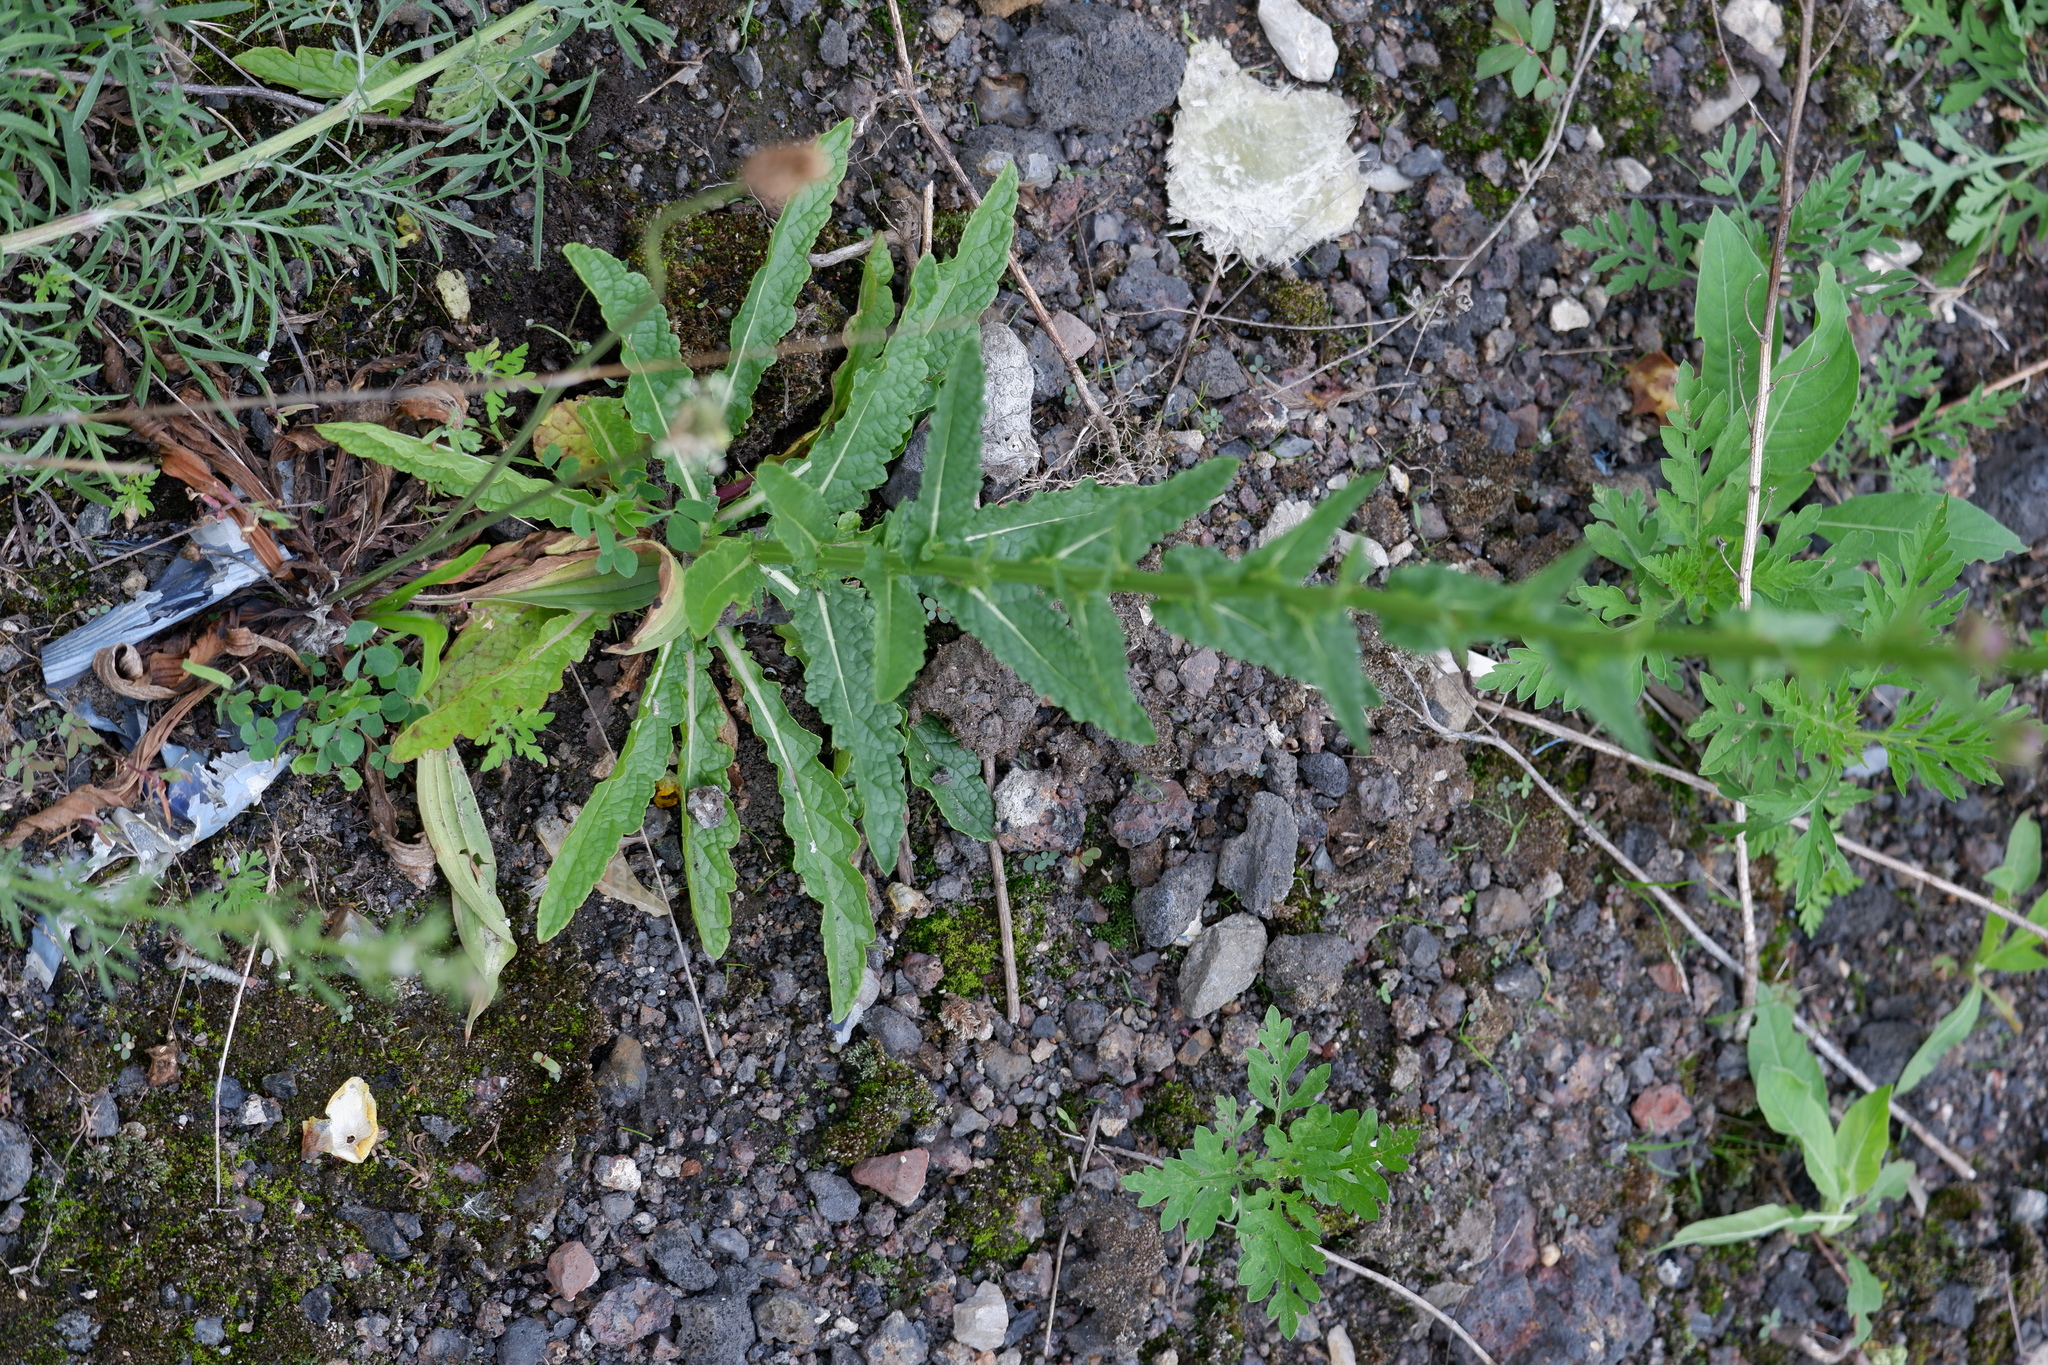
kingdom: Plantae
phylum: Tracheophyta
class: Magnoliopsida
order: Lamiales
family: Scrophulariaceae
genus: Verbascum
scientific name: Verbascum blattaria
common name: Moth mullein
